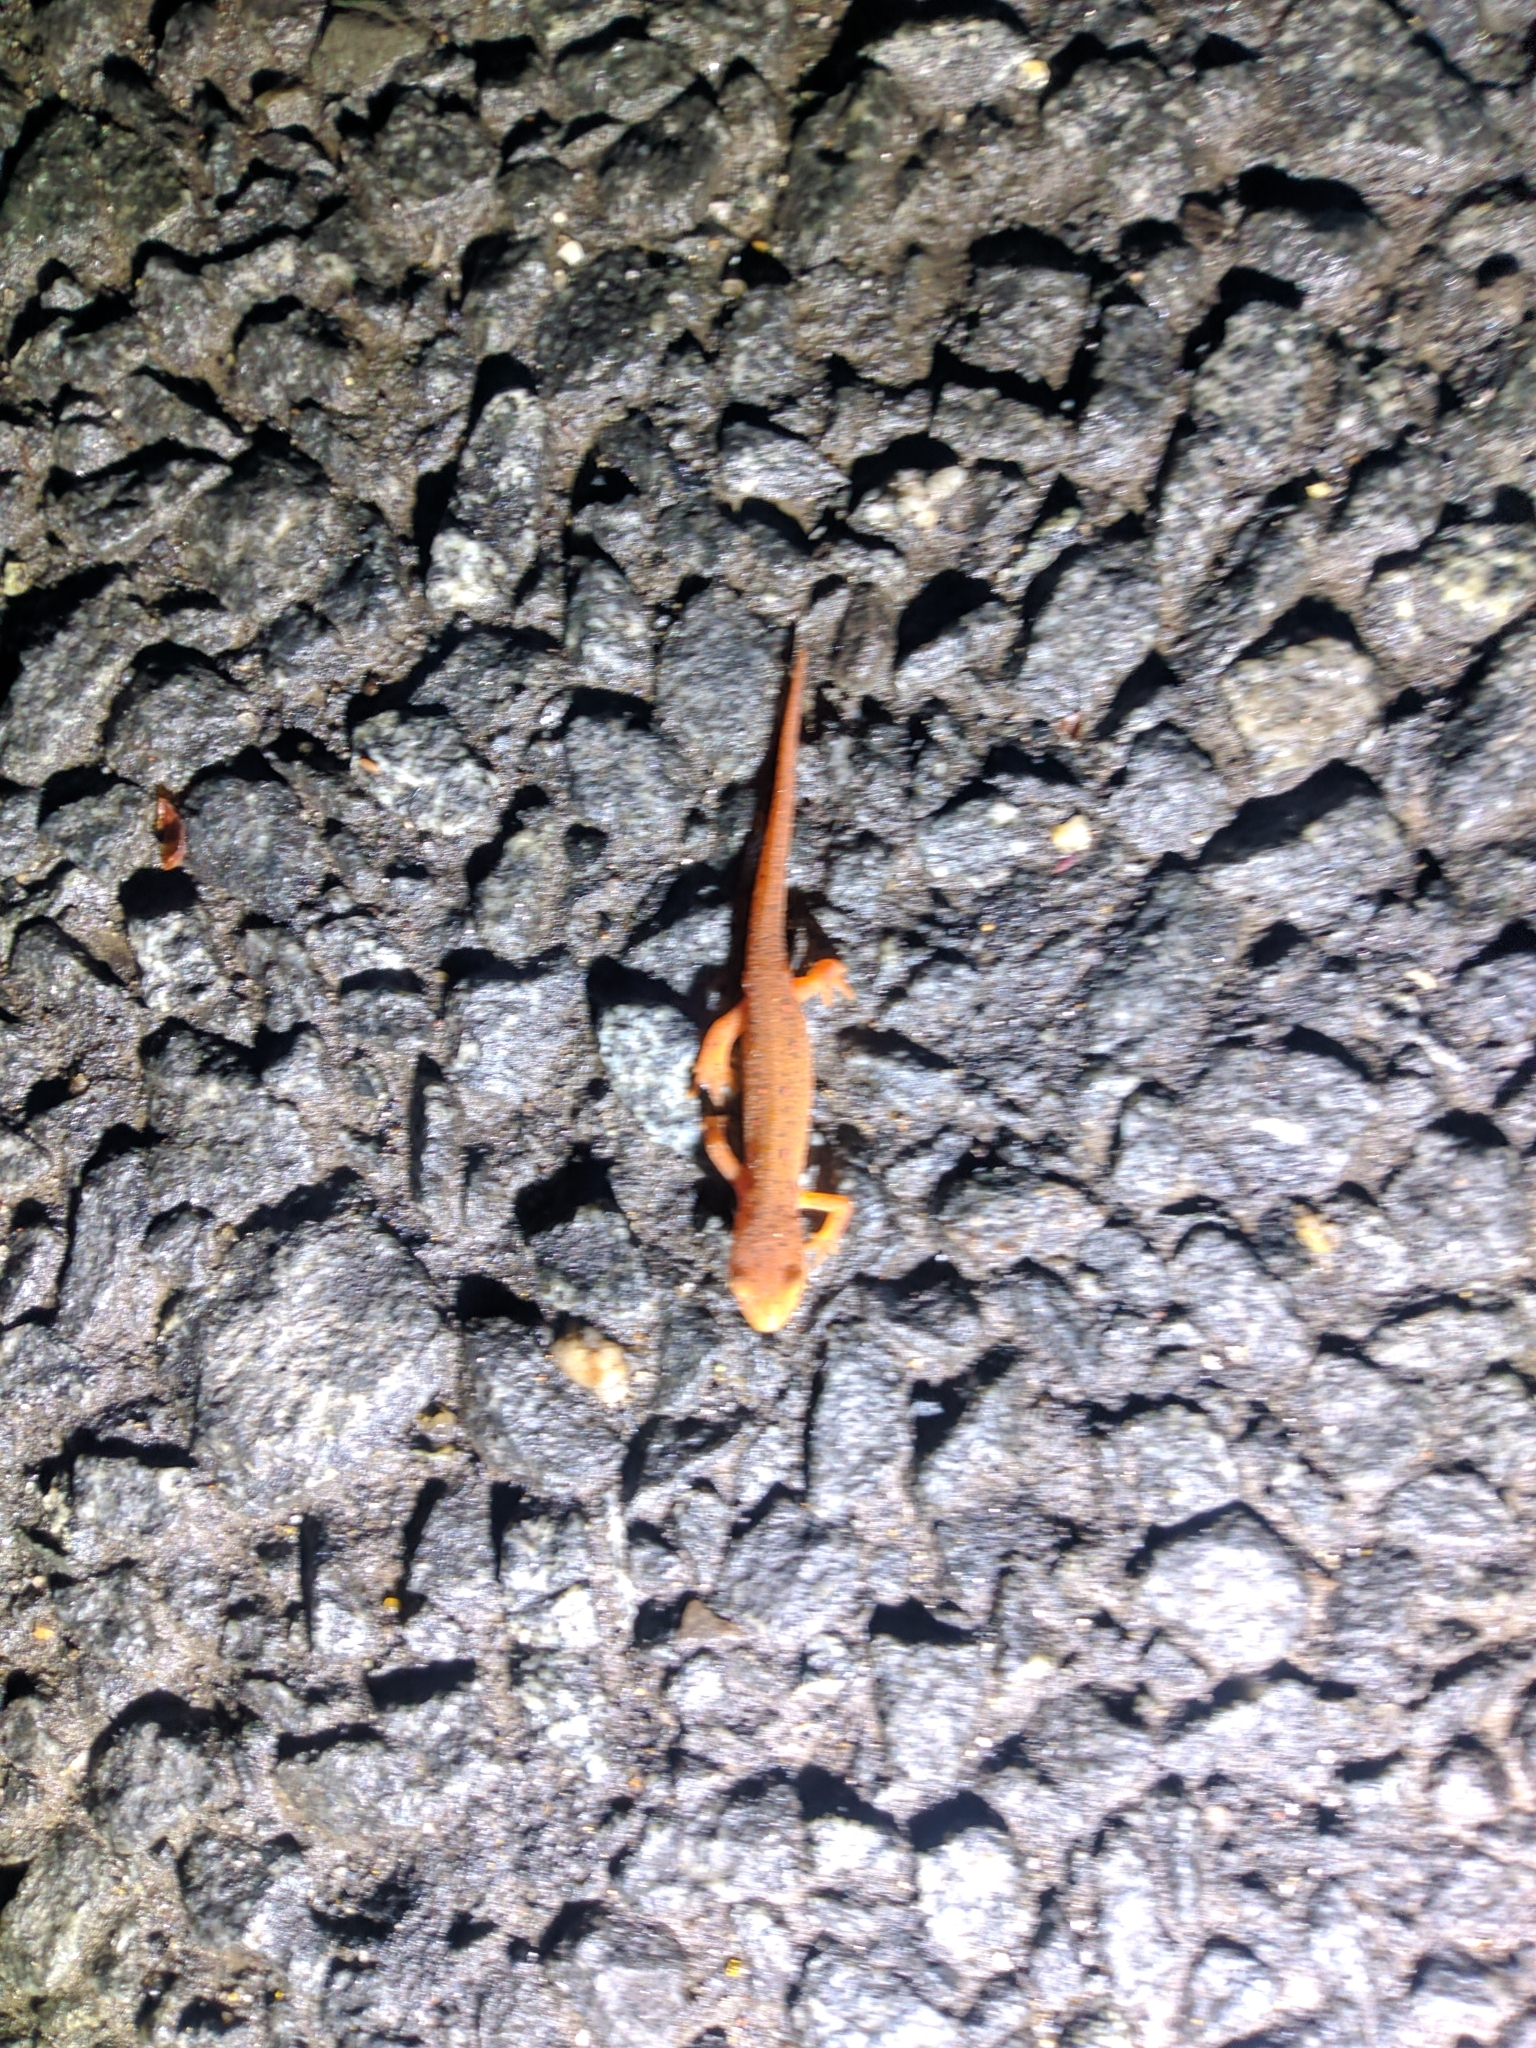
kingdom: Animalia
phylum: Chordata
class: Amphibia
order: Caudata
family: Salamandridae
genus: Notophthalmus
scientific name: Notophthalmus viridescens
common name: Eastern newt
